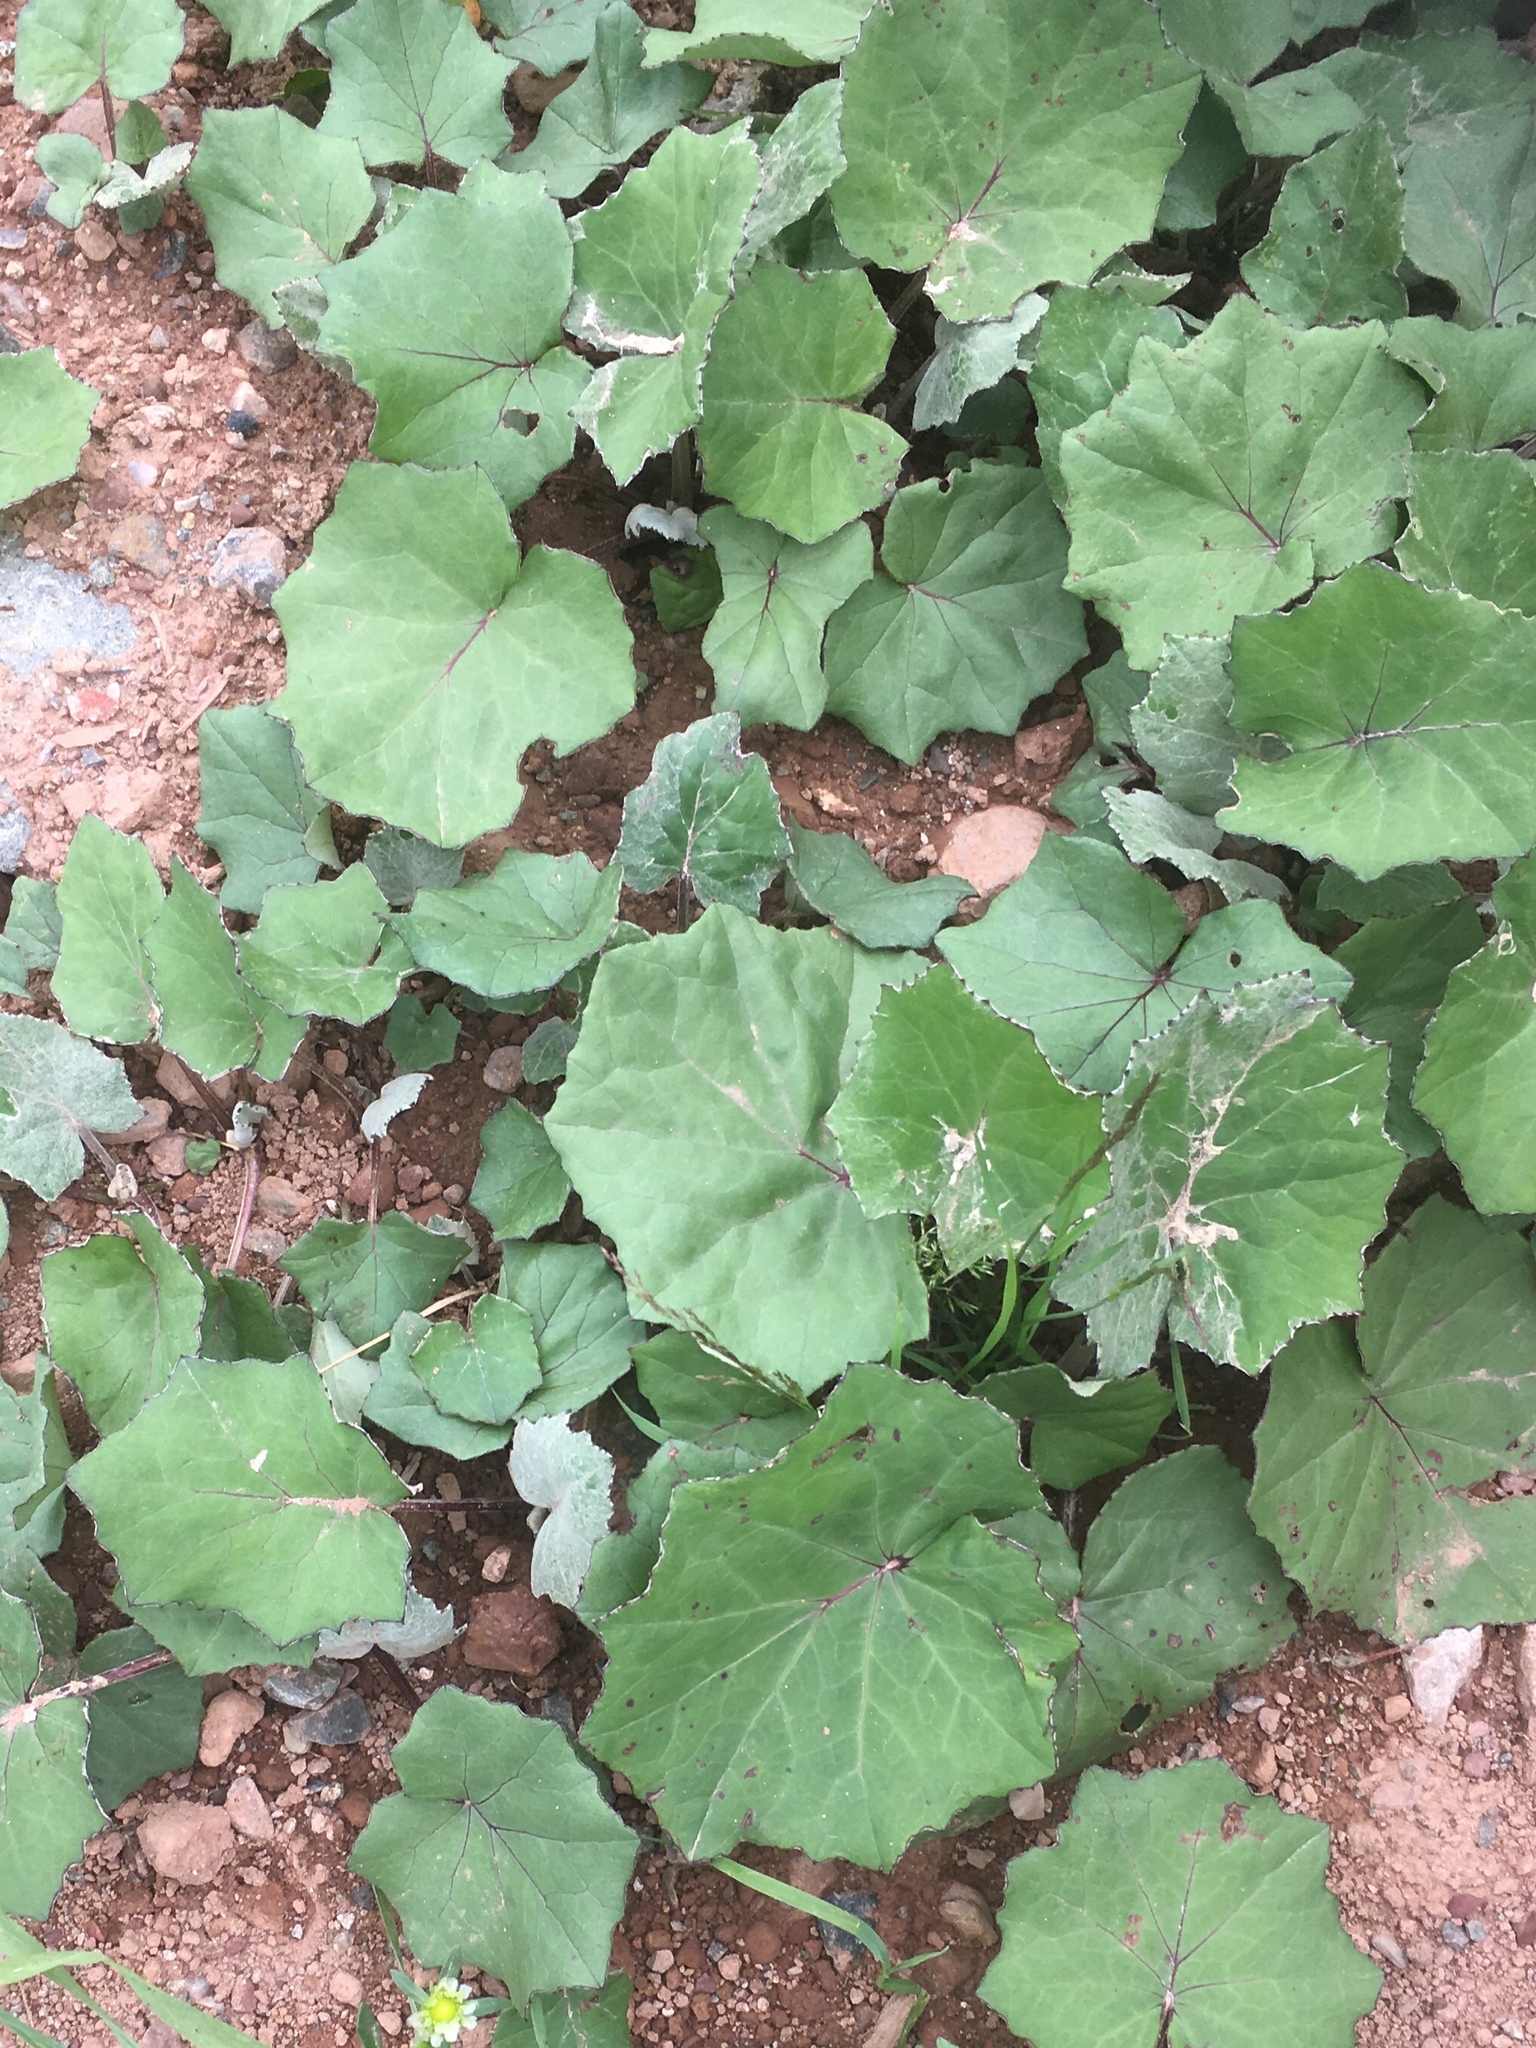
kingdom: Plantae
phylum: Tracheophyta
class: Magnoliopsida
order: Asterales
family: Asteraceae
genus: Tussilago
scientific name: Tussilago farfara
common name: Coltsfoot
